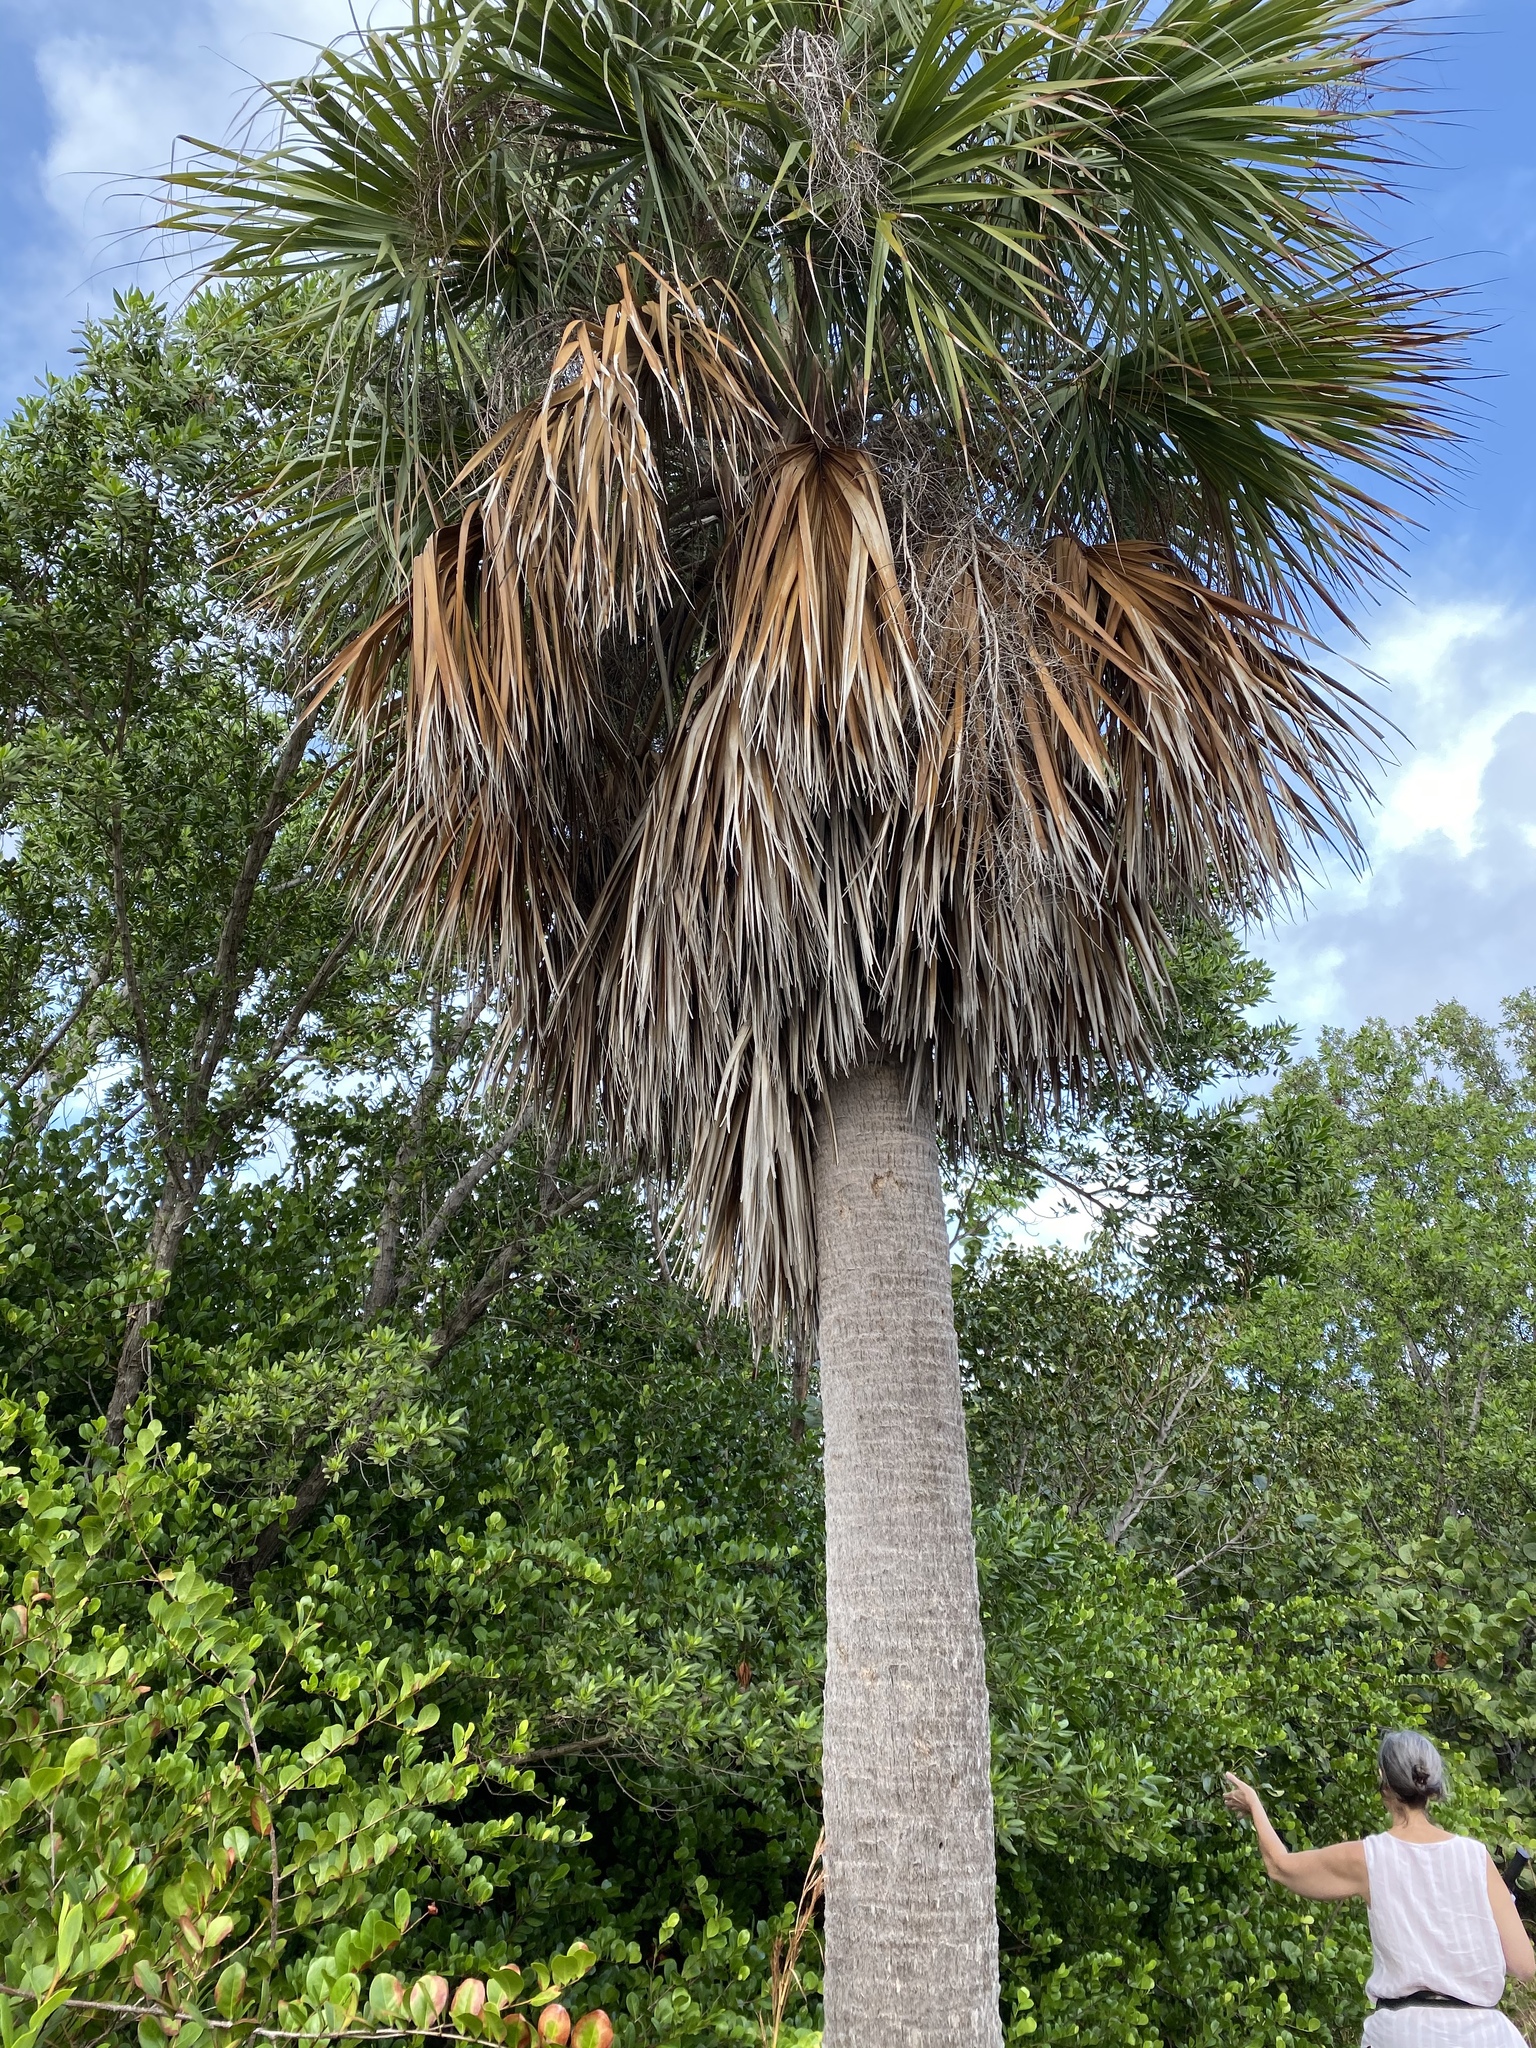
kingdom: Plantae
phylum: Tracheophyta
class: Liliopsida
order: Arecales
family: Arecaceae
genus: Sabal
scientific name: Sabal palmetto
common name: Blue palmetto
